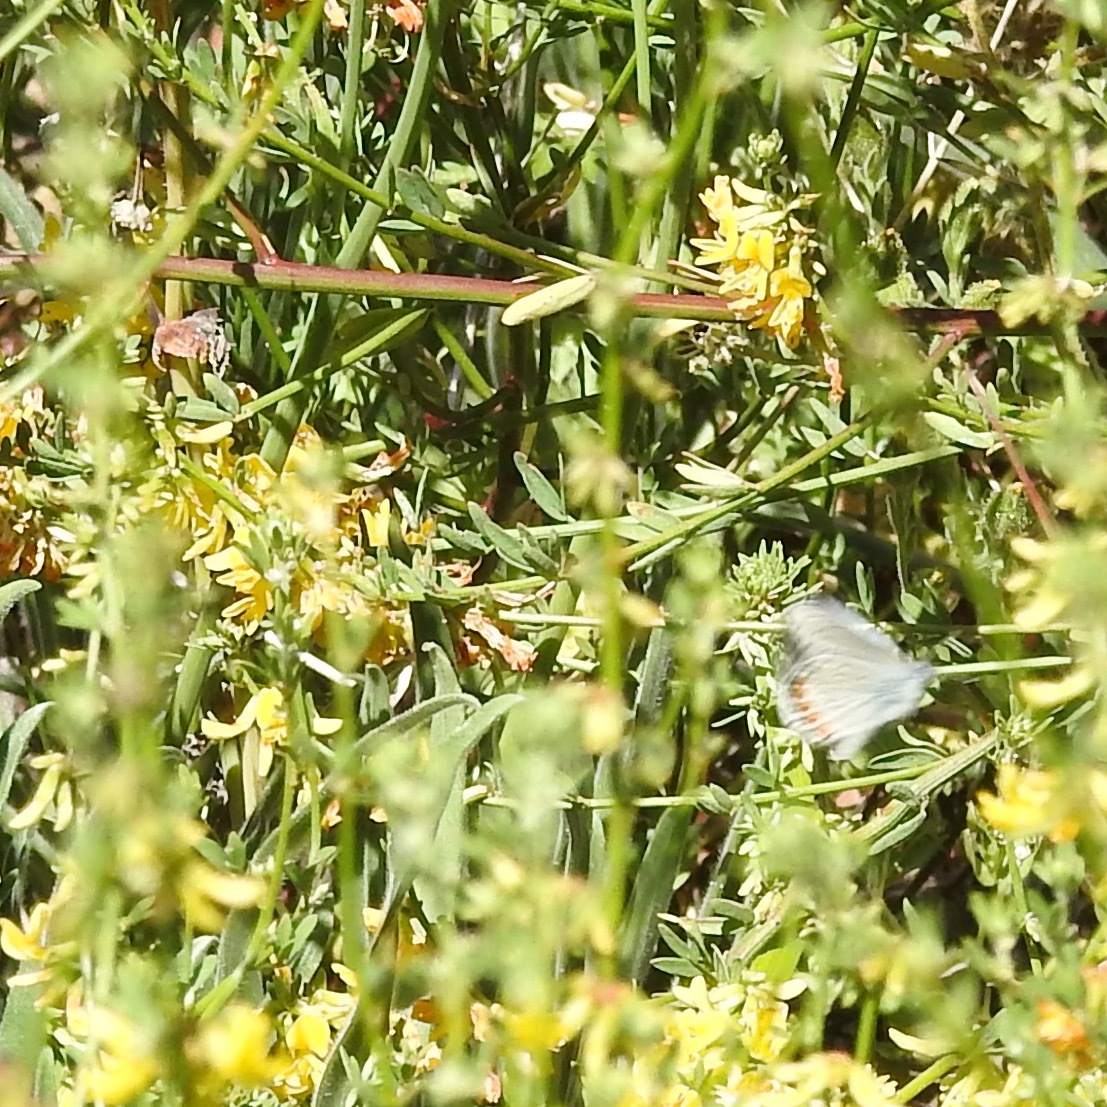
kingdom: Animalia
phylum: Arthropoda
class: Insecta
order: Lepidoptera
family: Lycaenidae
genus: Icaricia
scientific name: Icaricia acmon
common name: Acmon blue
